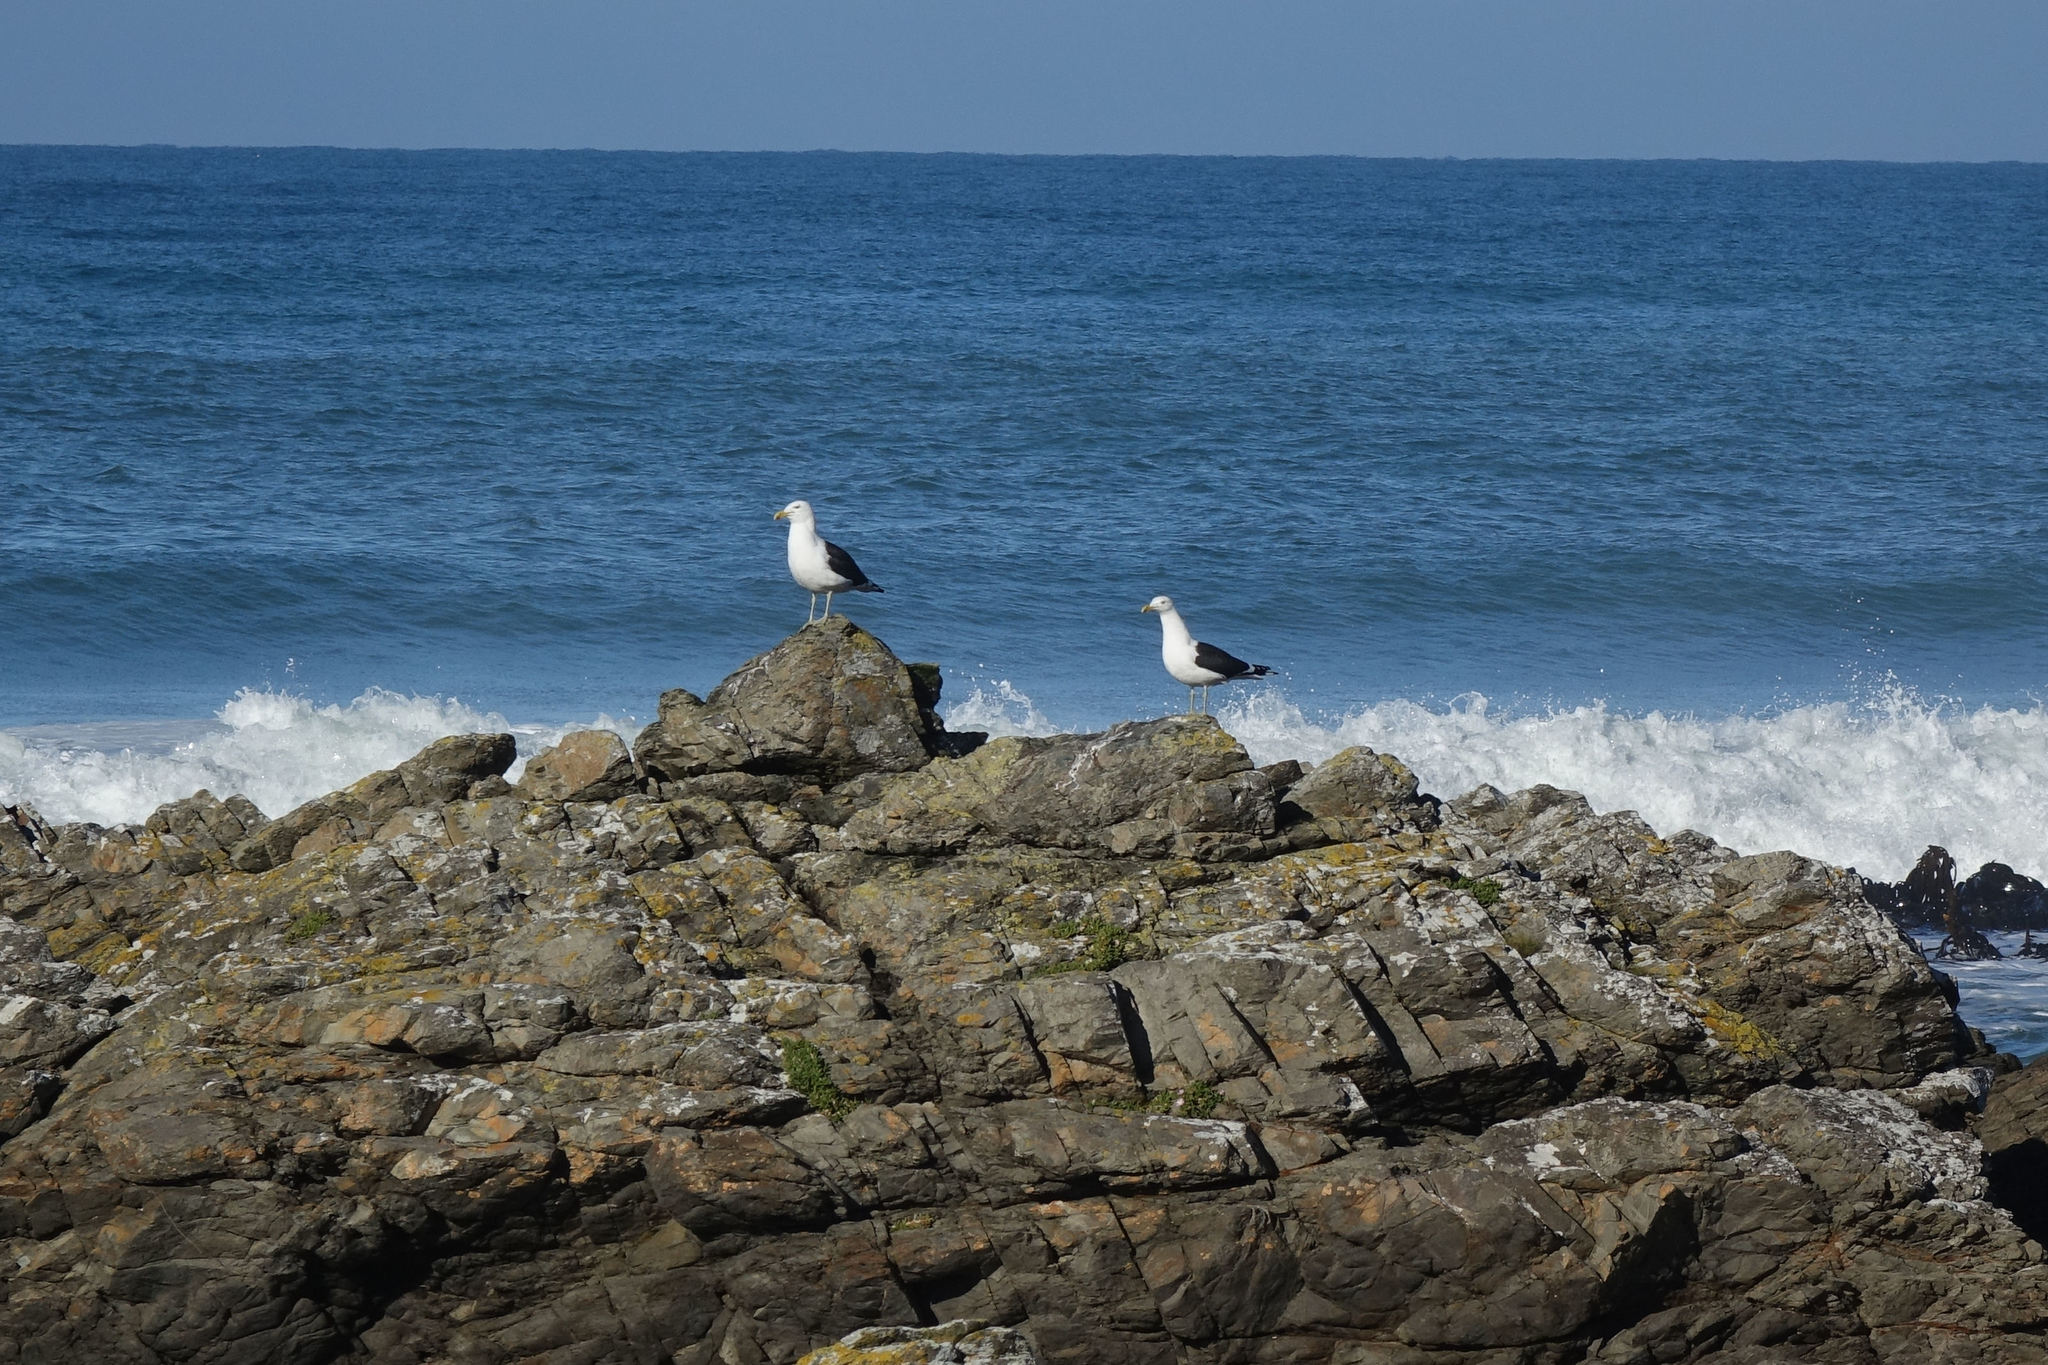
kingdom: Animalia
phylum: Chordata
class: Aves
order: Charadriiformes
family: Laridae
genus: Larus
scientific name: Larus dominicanus
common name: Kelp gull
